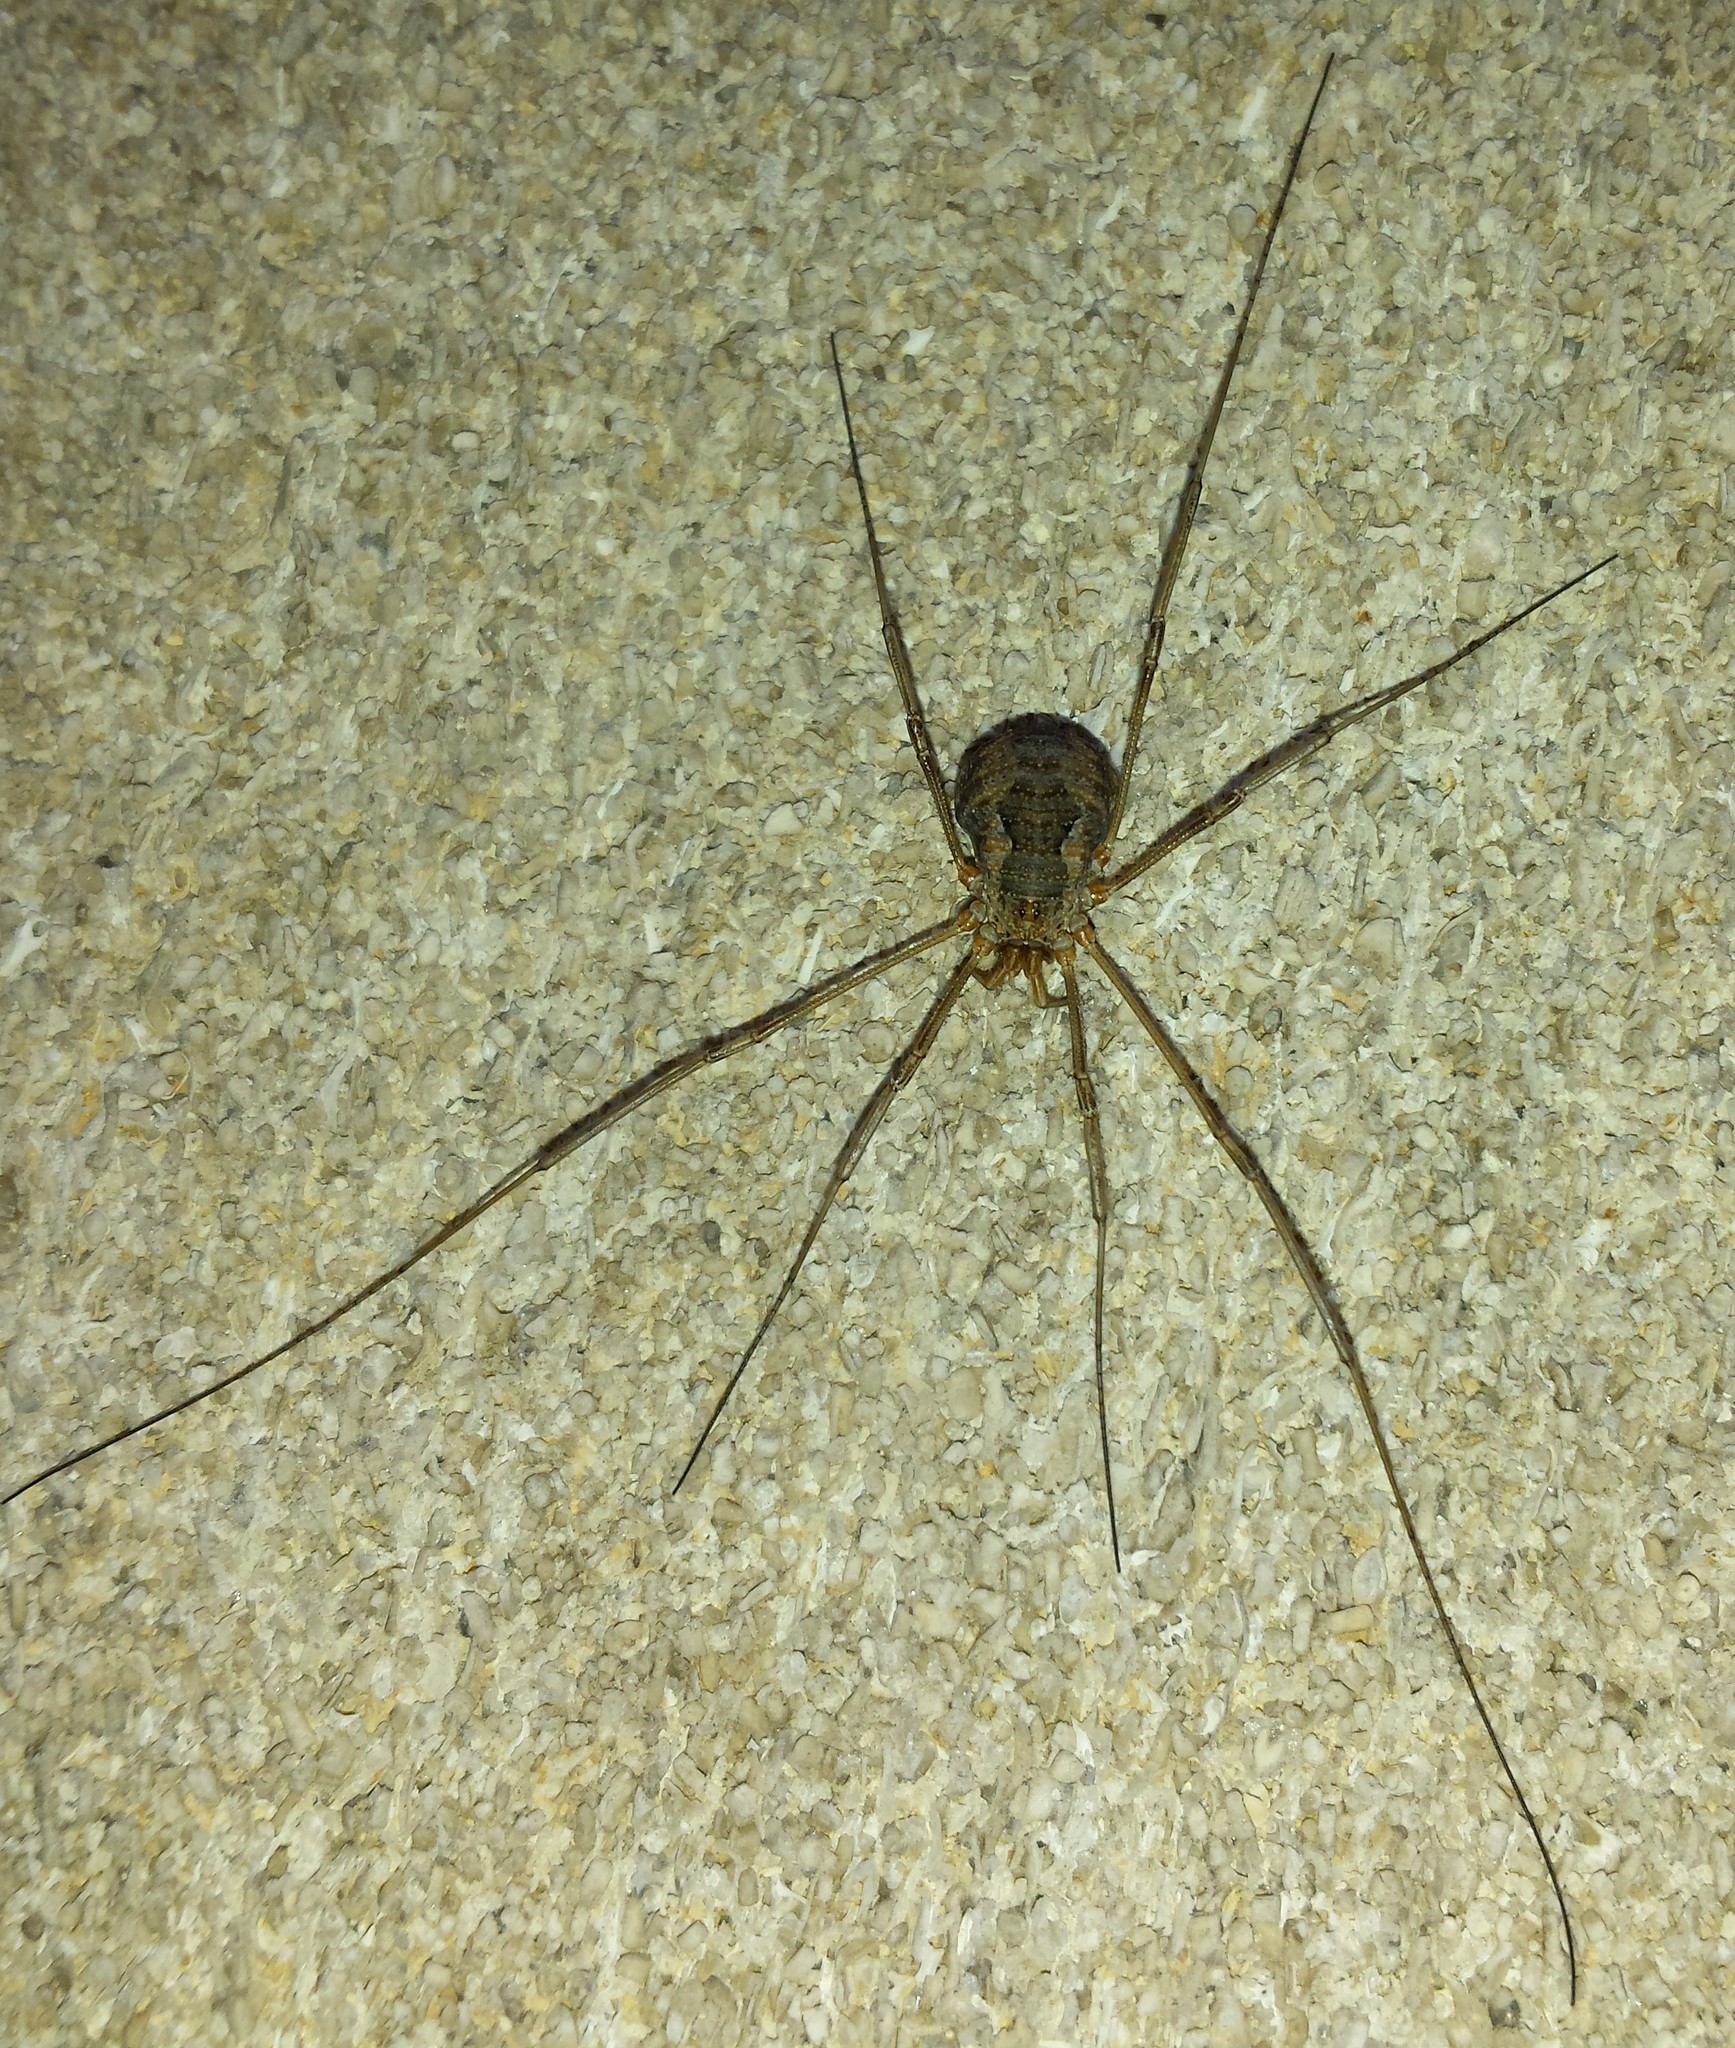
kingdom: Animalia
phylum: Arthropoda
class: Arachnida
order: Opiliones
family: Phalangiidae
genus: Phalangium
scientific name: Phalangium opilio
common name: Daddy longleg
